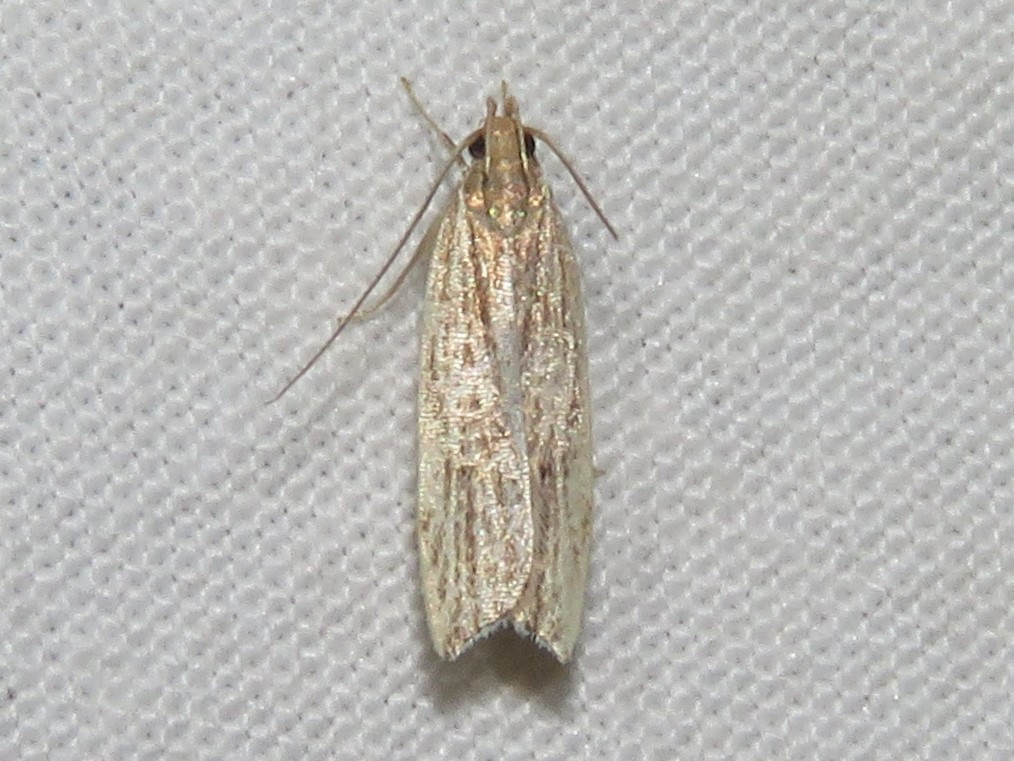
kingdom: Animalia
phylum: Arthropoda
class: Insecta
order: Lepidoptera
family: Gelechiidae
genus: Helcystogramma
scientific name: Helcystogramma hystricella
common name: Lanceolate moth
